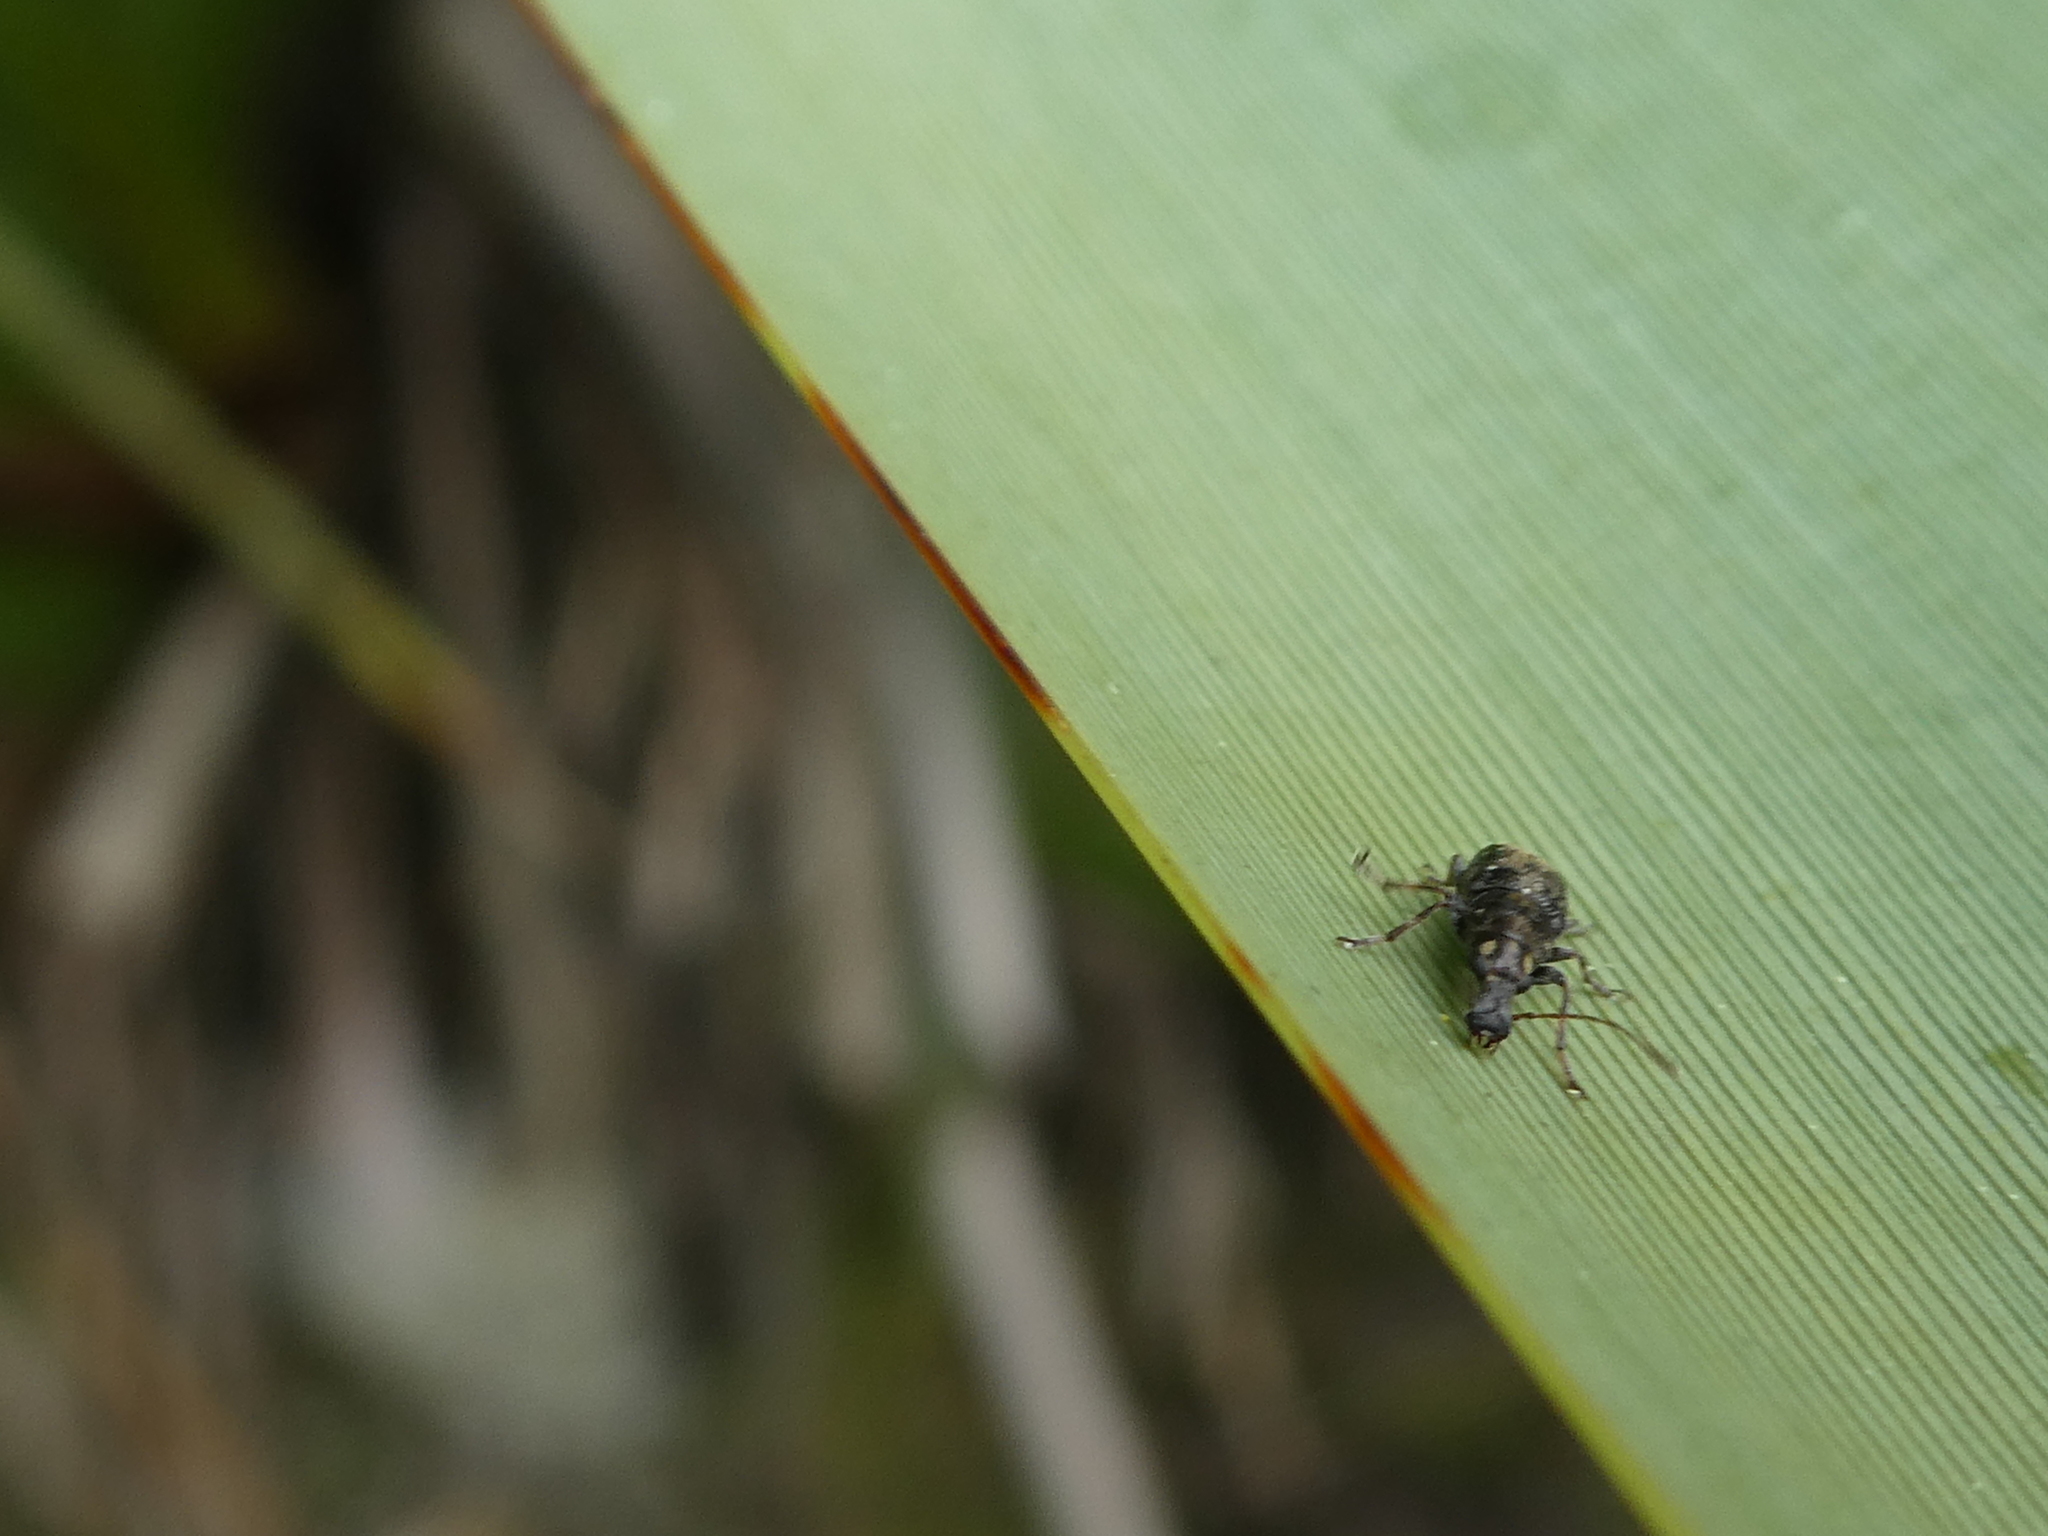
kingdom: Animalia
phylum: Arthropoda
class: Insecta
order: Coleoptera
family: Anthribidae
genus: Sharpius
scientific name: Sharpius
